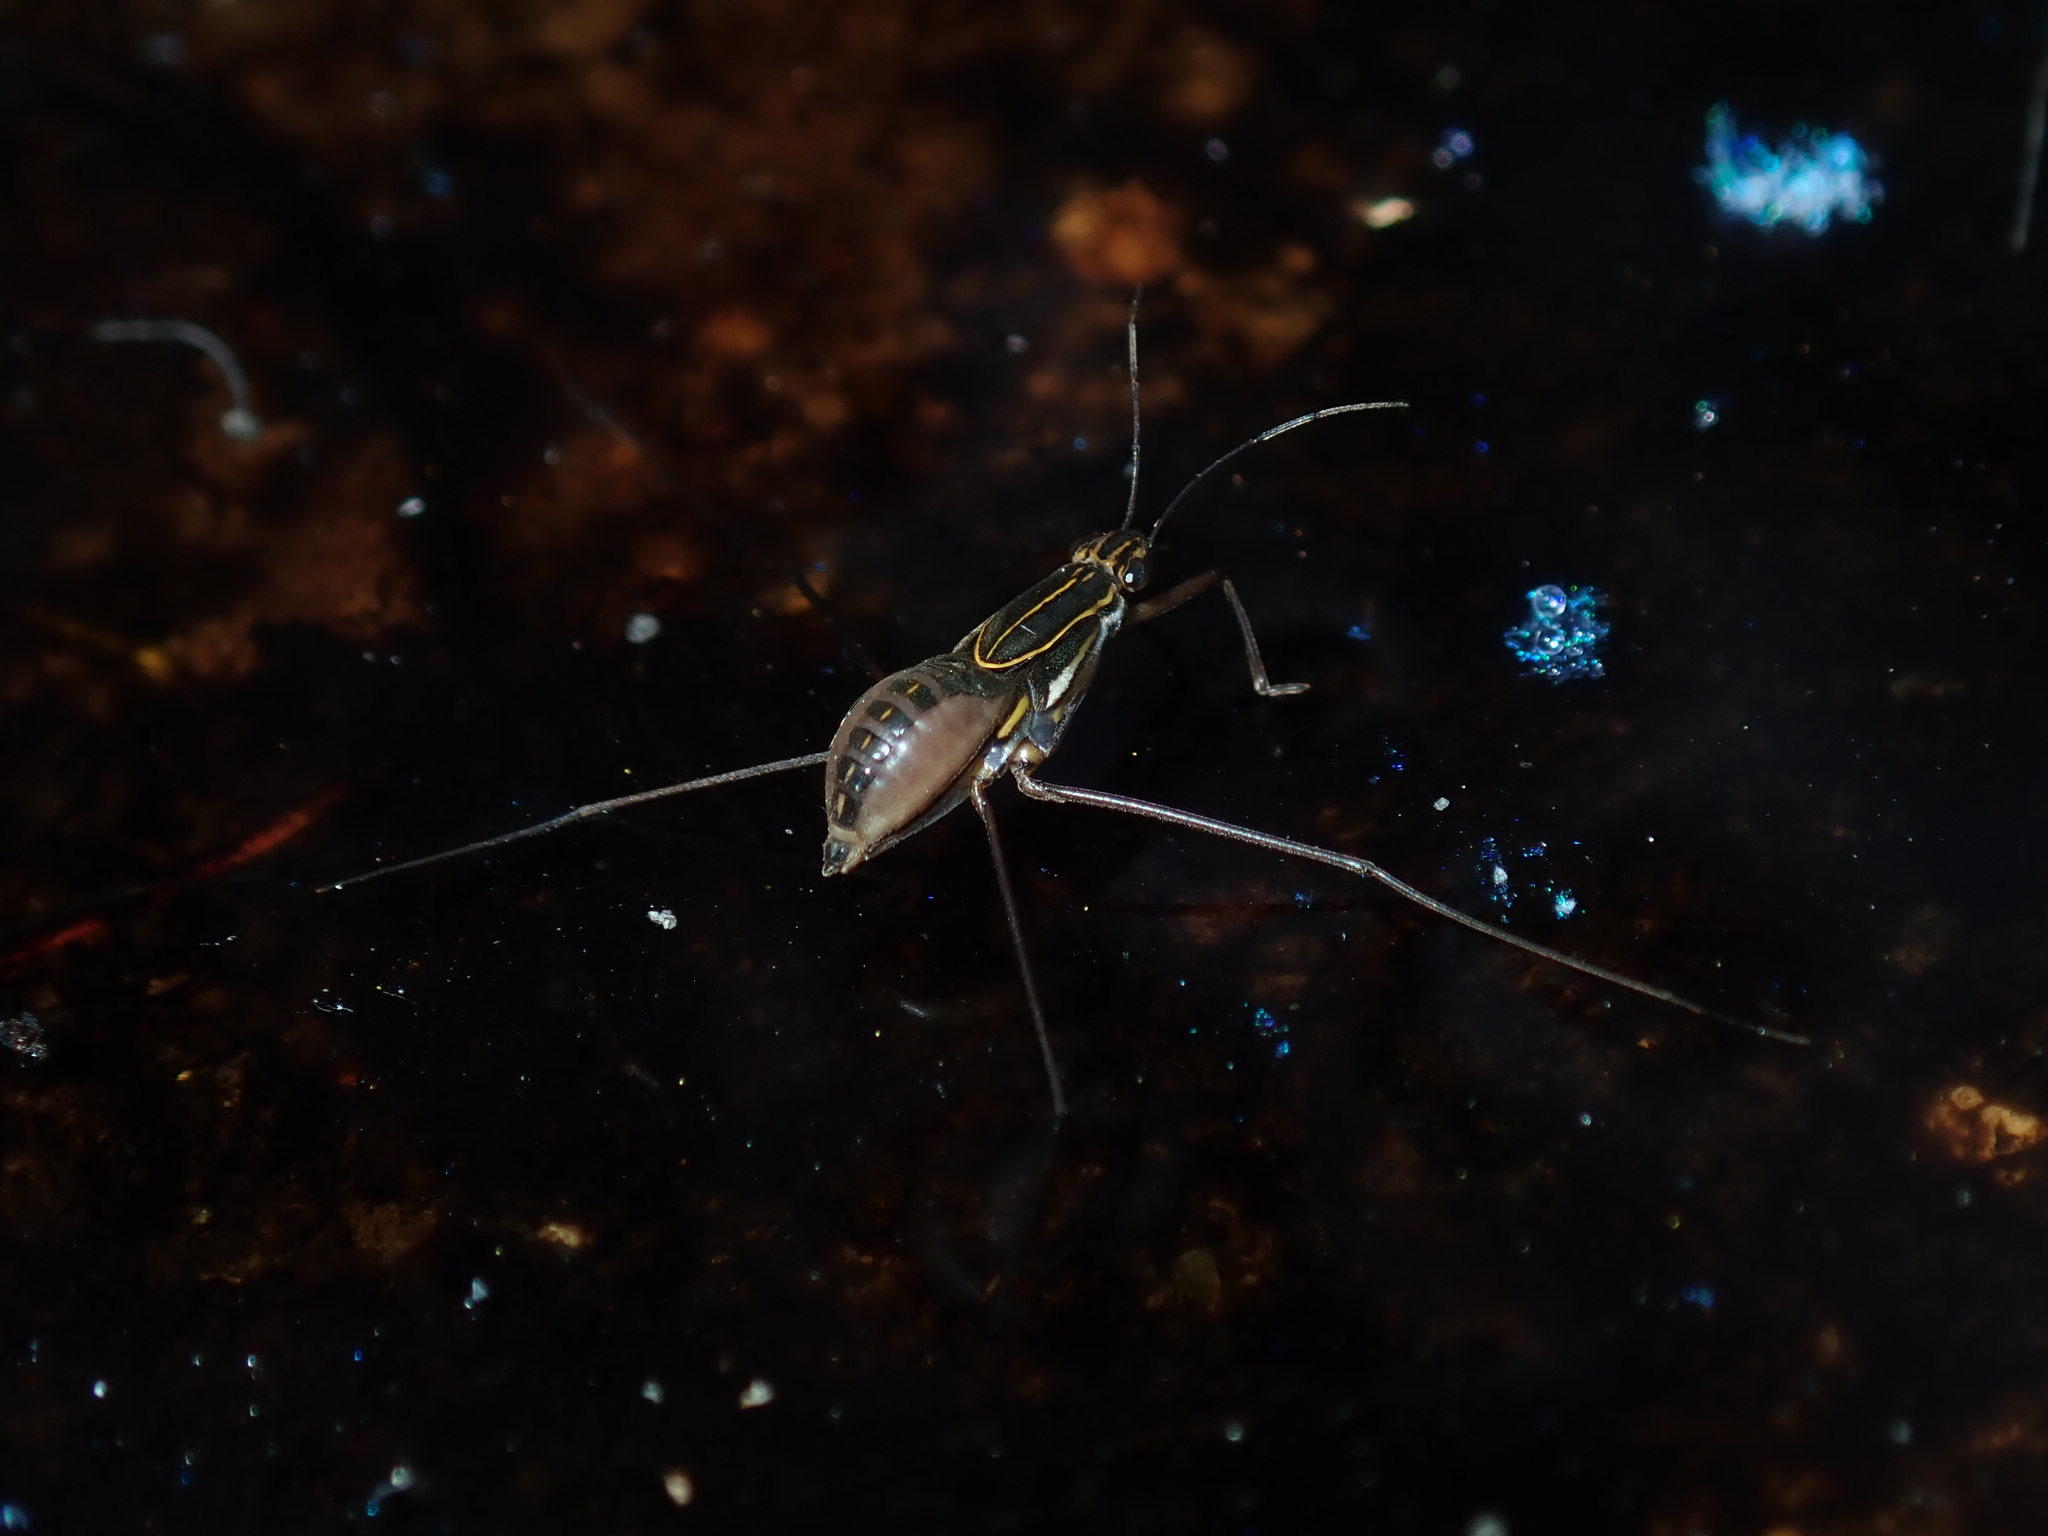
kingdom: Animalia
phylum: Arthropoda
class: Insecta
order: Hemiptera
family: Gerridae
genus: Limnogonus
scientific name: Limnogonus luctuosus
